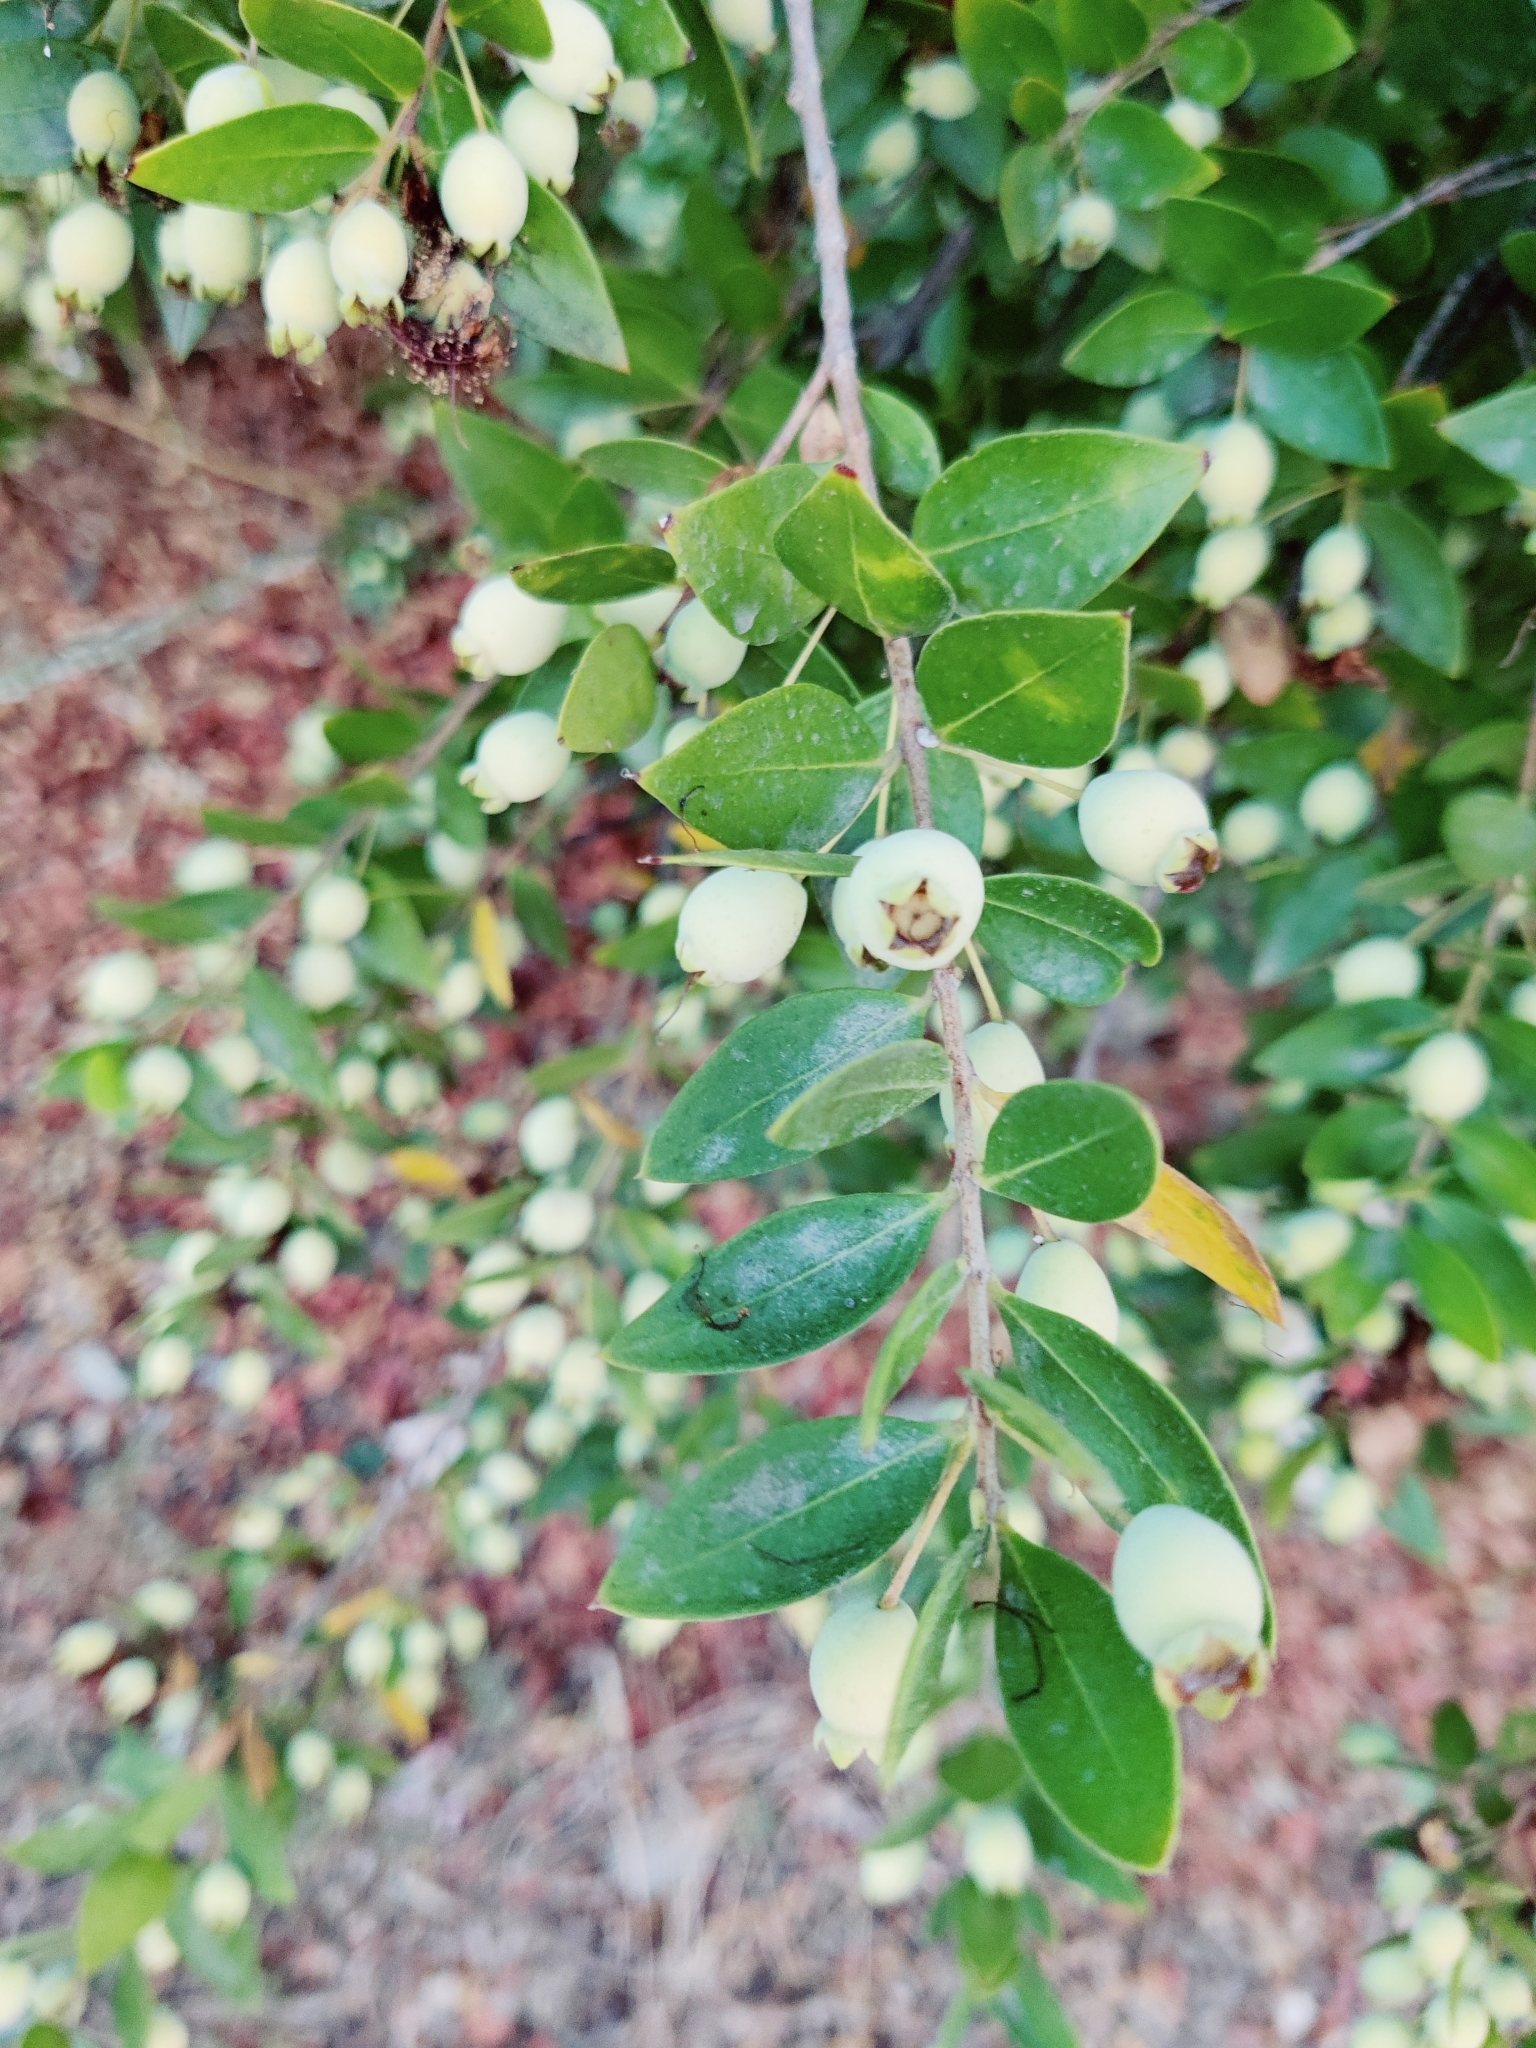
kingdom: Plantae
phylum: Tracheophyta
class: Magnoliopsida
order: Myrtales
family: Myrtaceae
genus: Myrtus
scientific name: Myrtus communis
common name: Myrtle
